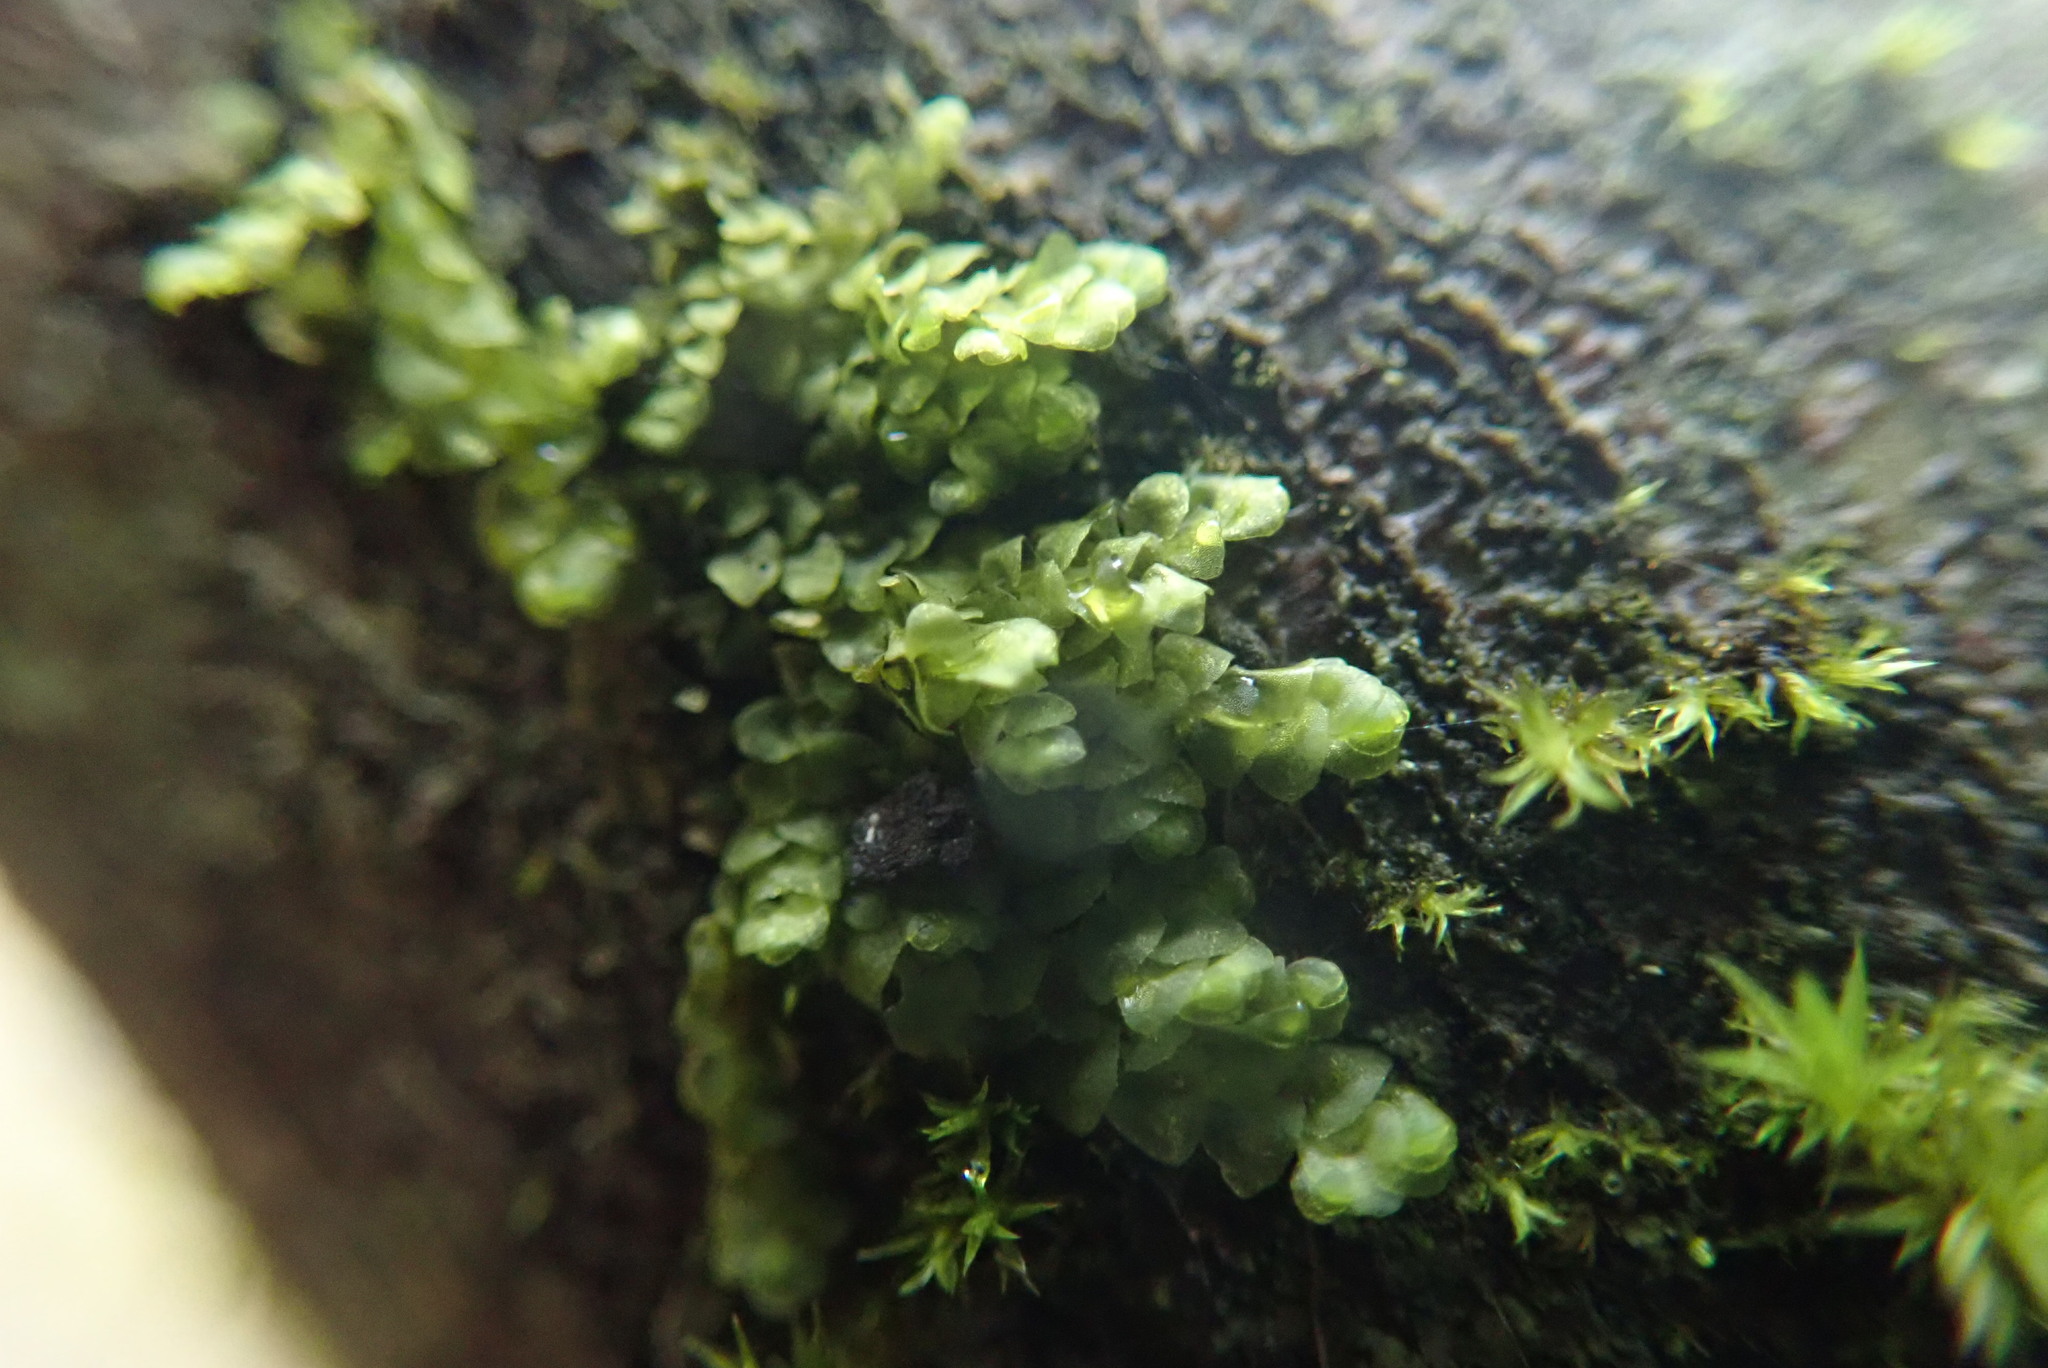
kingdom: Plantae
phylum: Marchantiophyta
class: Jungermanniopsida
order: Porellales
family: Radulaceae
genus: Radula
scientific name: Radula complanata
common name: Flat-leaved scalewort
